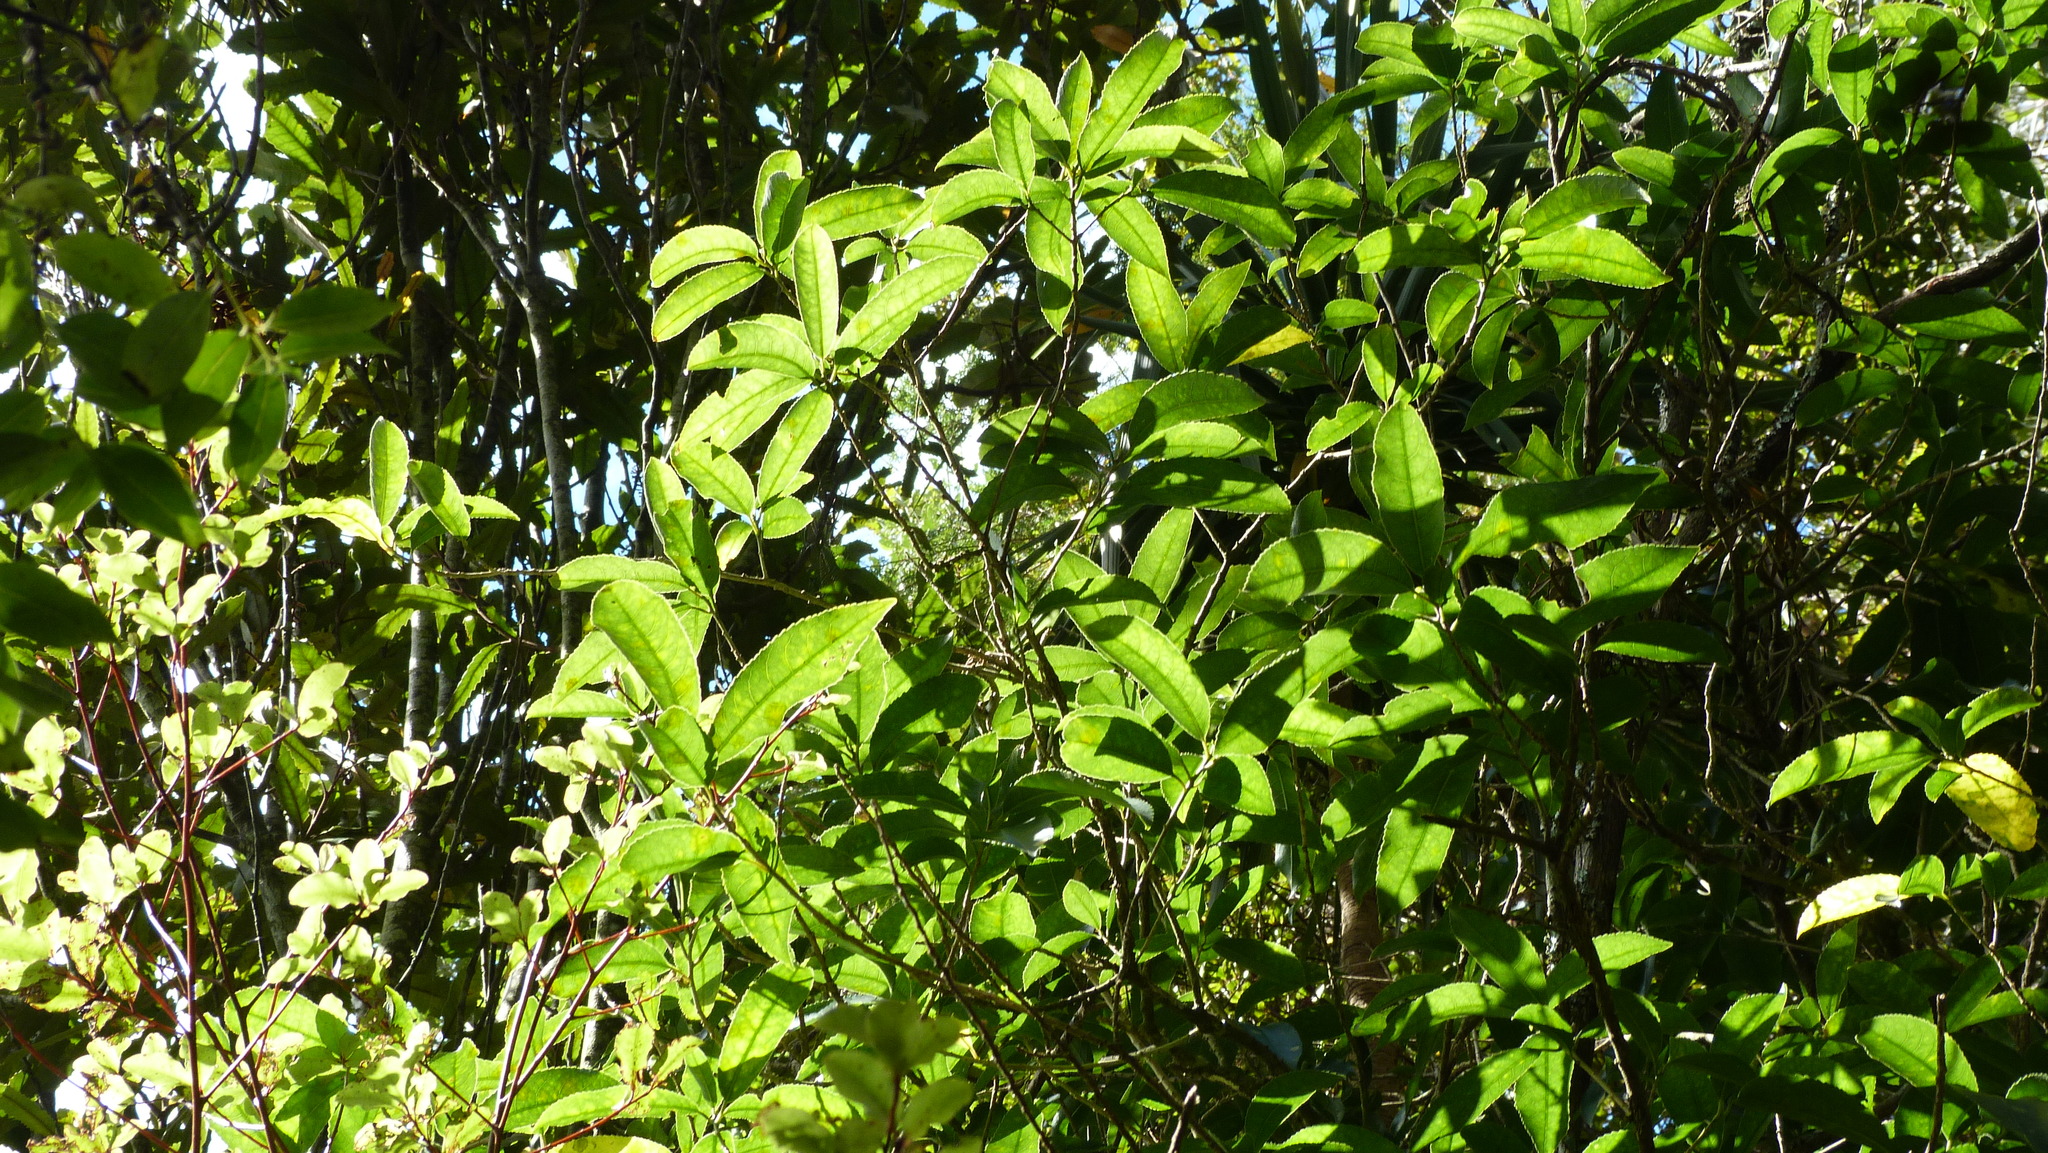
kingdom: Plantae
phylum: Tracheophyta
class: Magnoliopsida
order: Malpighiales
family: Violaceae
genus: Melicytus
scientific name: Melicytus ramiflorus
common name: Mahoe
